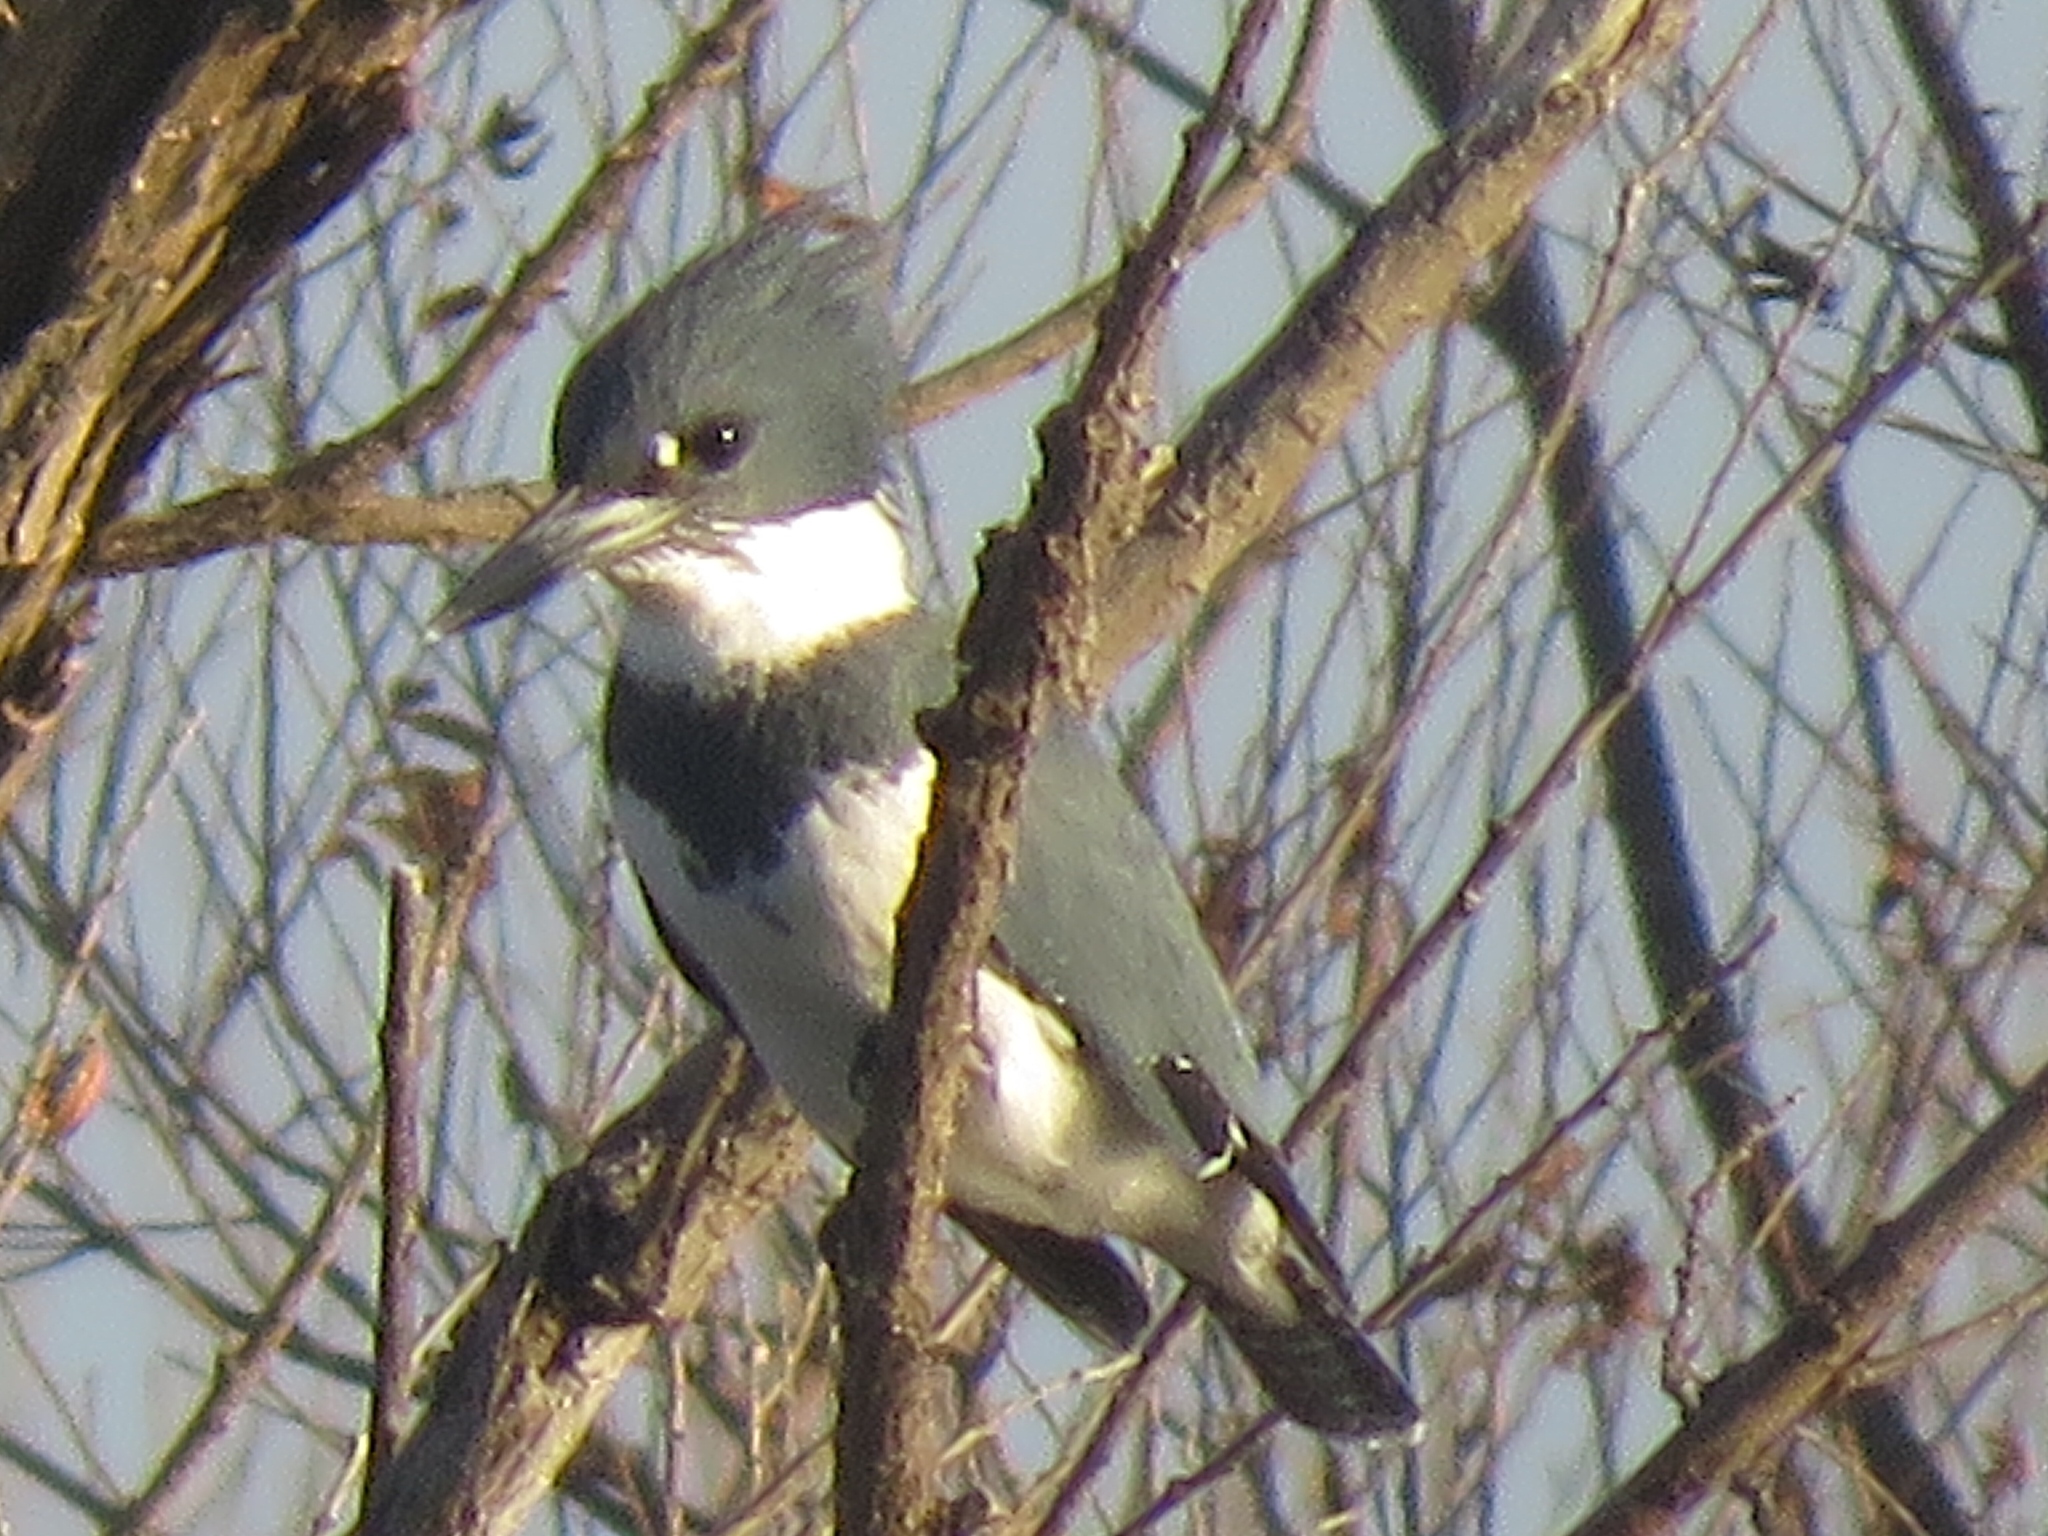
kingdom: Animalia
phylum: Chordata
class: Aves
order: Coraciiformes
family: Alcedinidae
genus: Megaceryle
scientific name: Megaceryle alcyon
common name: Belted kingfisher
